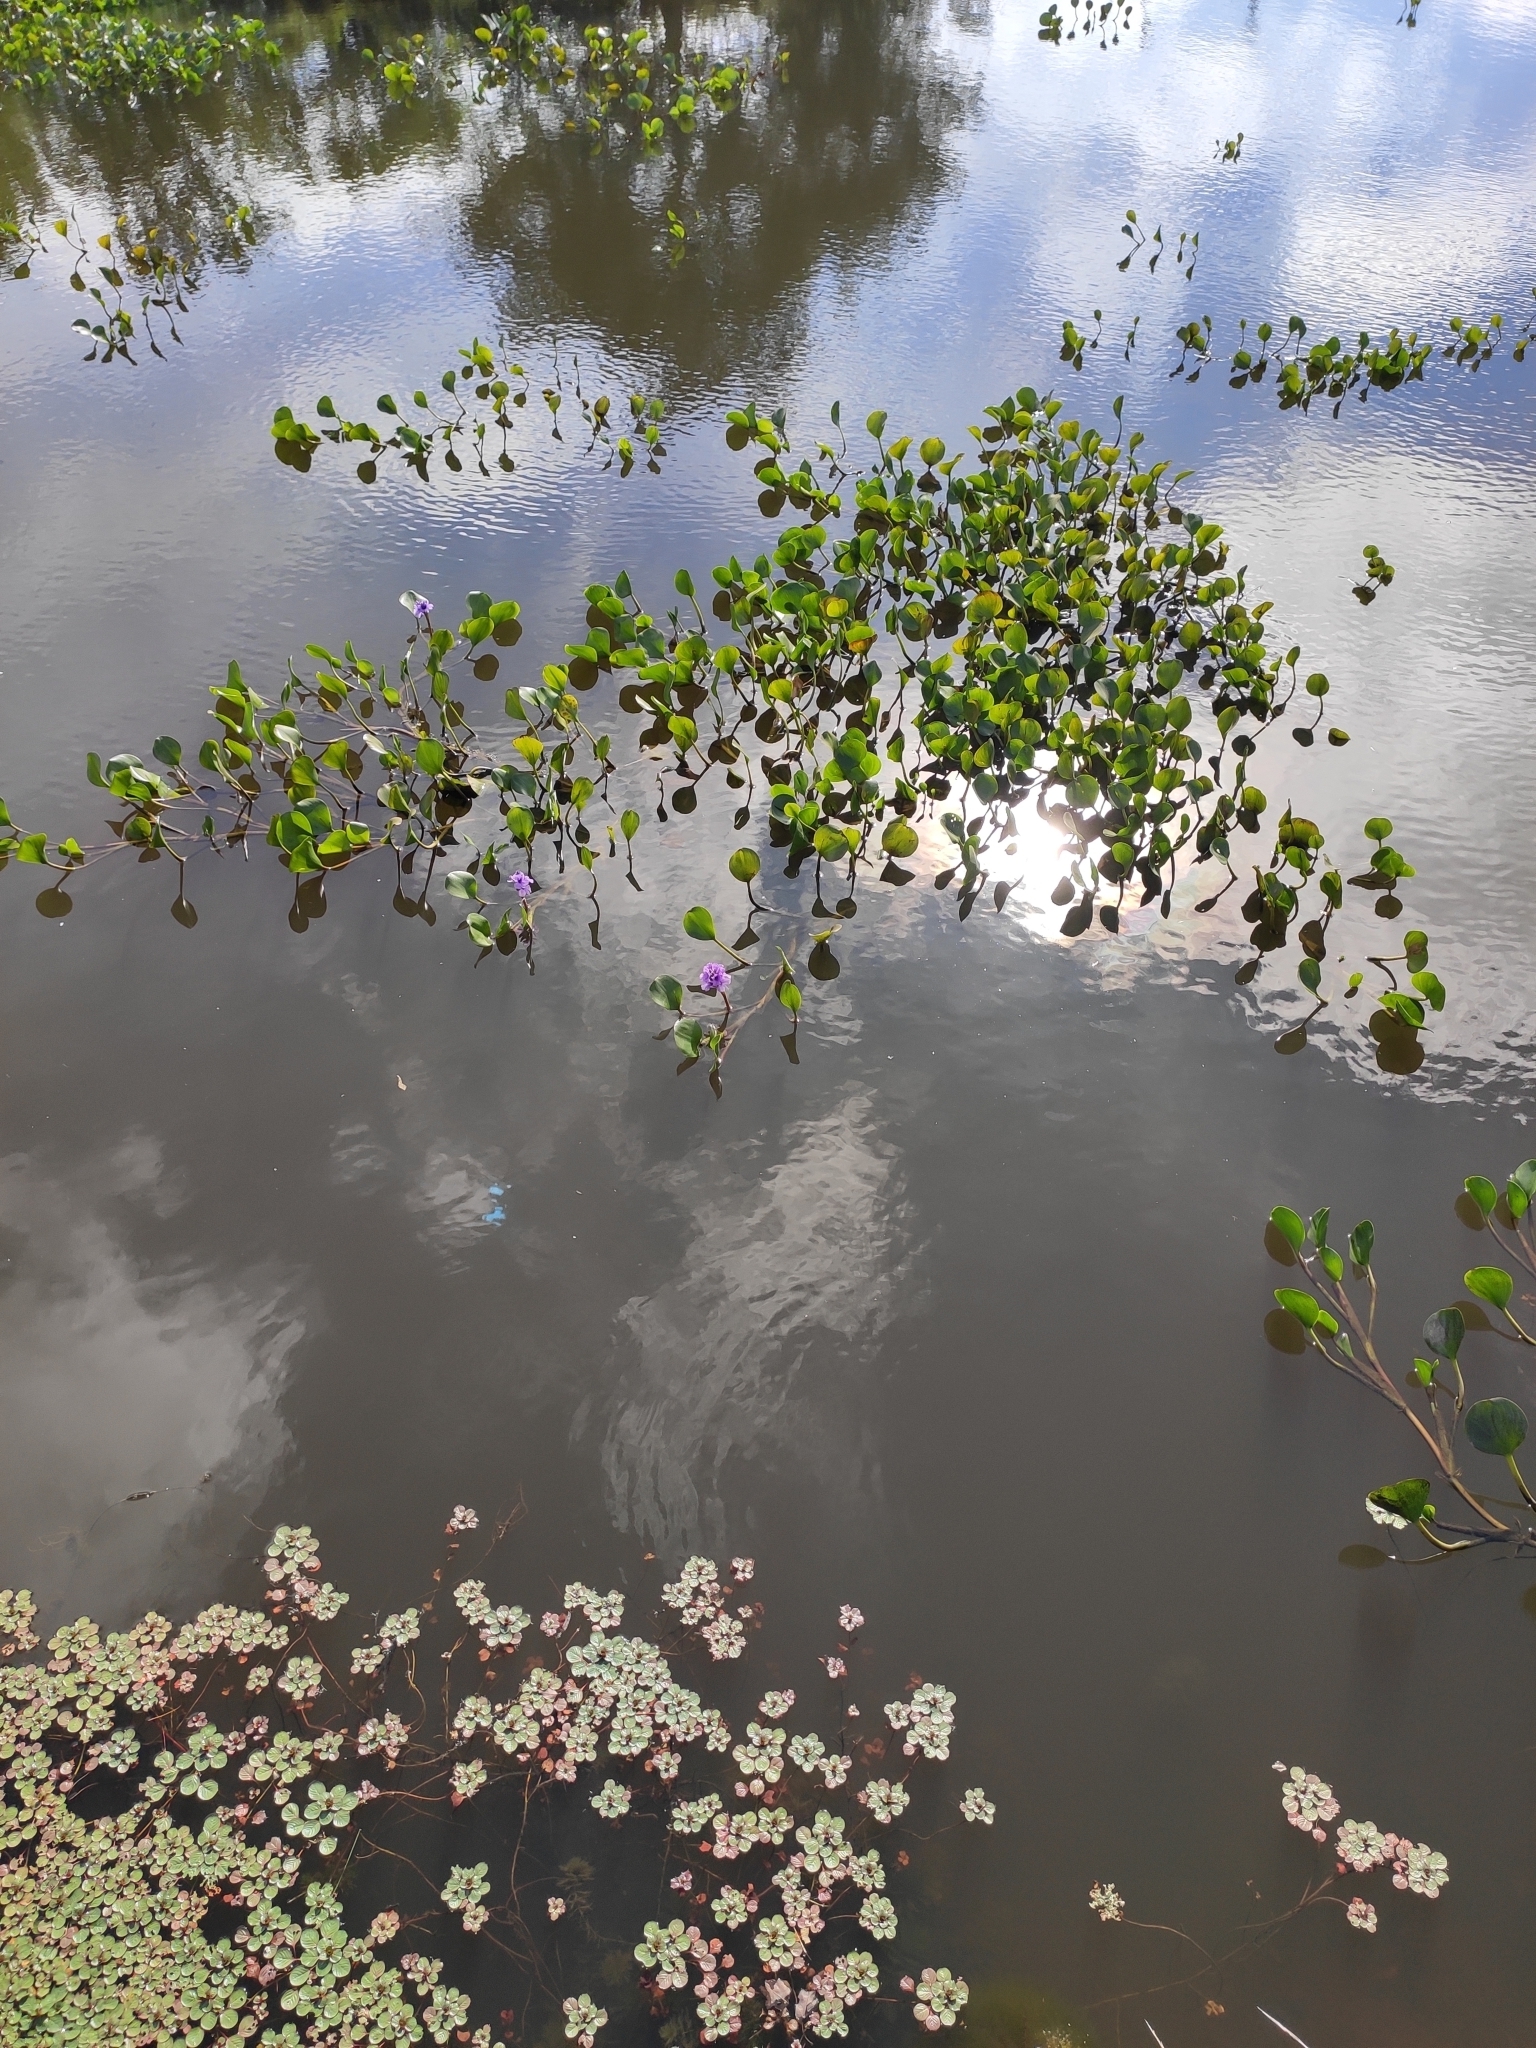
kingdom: Plantae
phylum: Tracheophyta
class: Liliopsida
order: Commelinales
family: Pontederiaceae
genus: Pontederia
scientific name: Pontederia azurea
